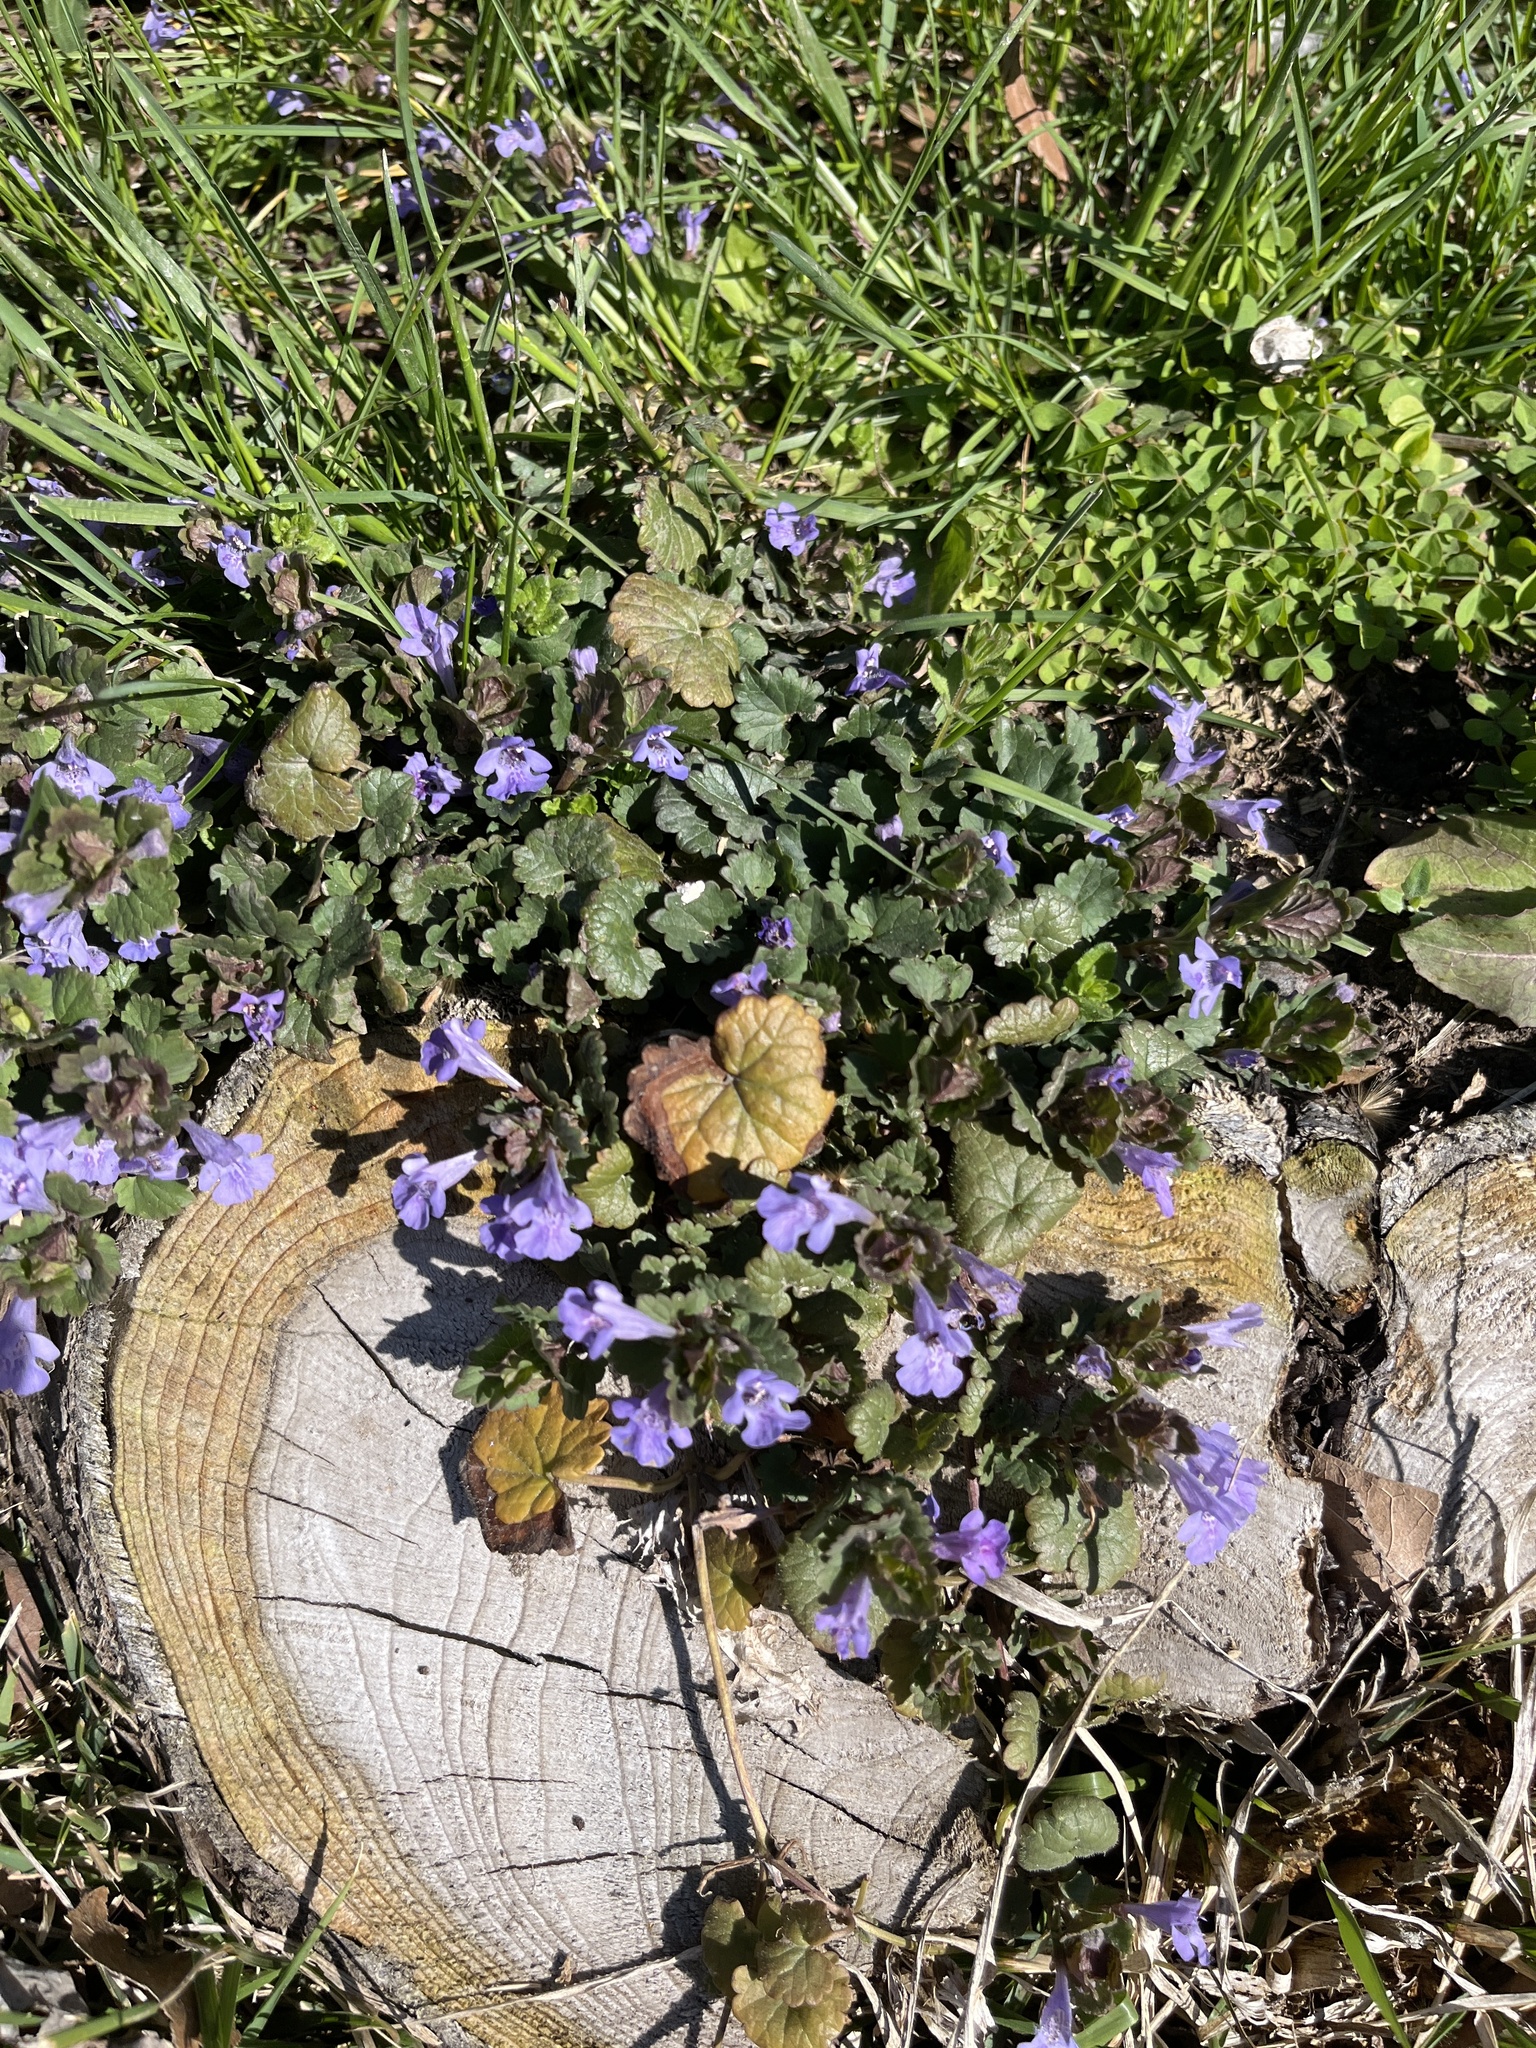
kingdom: Plantae
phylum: Tracheophyta
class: Magnoliopsida
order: Lamiales
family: Lamiaceae
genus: Glechoma
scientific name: Glechoma hederacea
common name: Ground ivy
